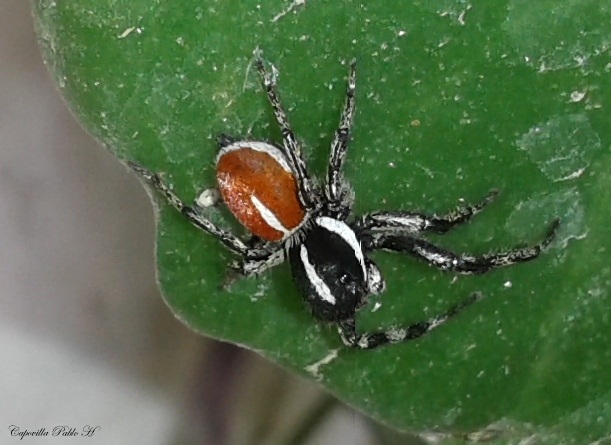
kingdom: Animalia
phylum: Arthropoda
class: Arachnida
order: Araneae
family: Salticidae
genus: Phiale
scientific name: Phiale roburifoliata
